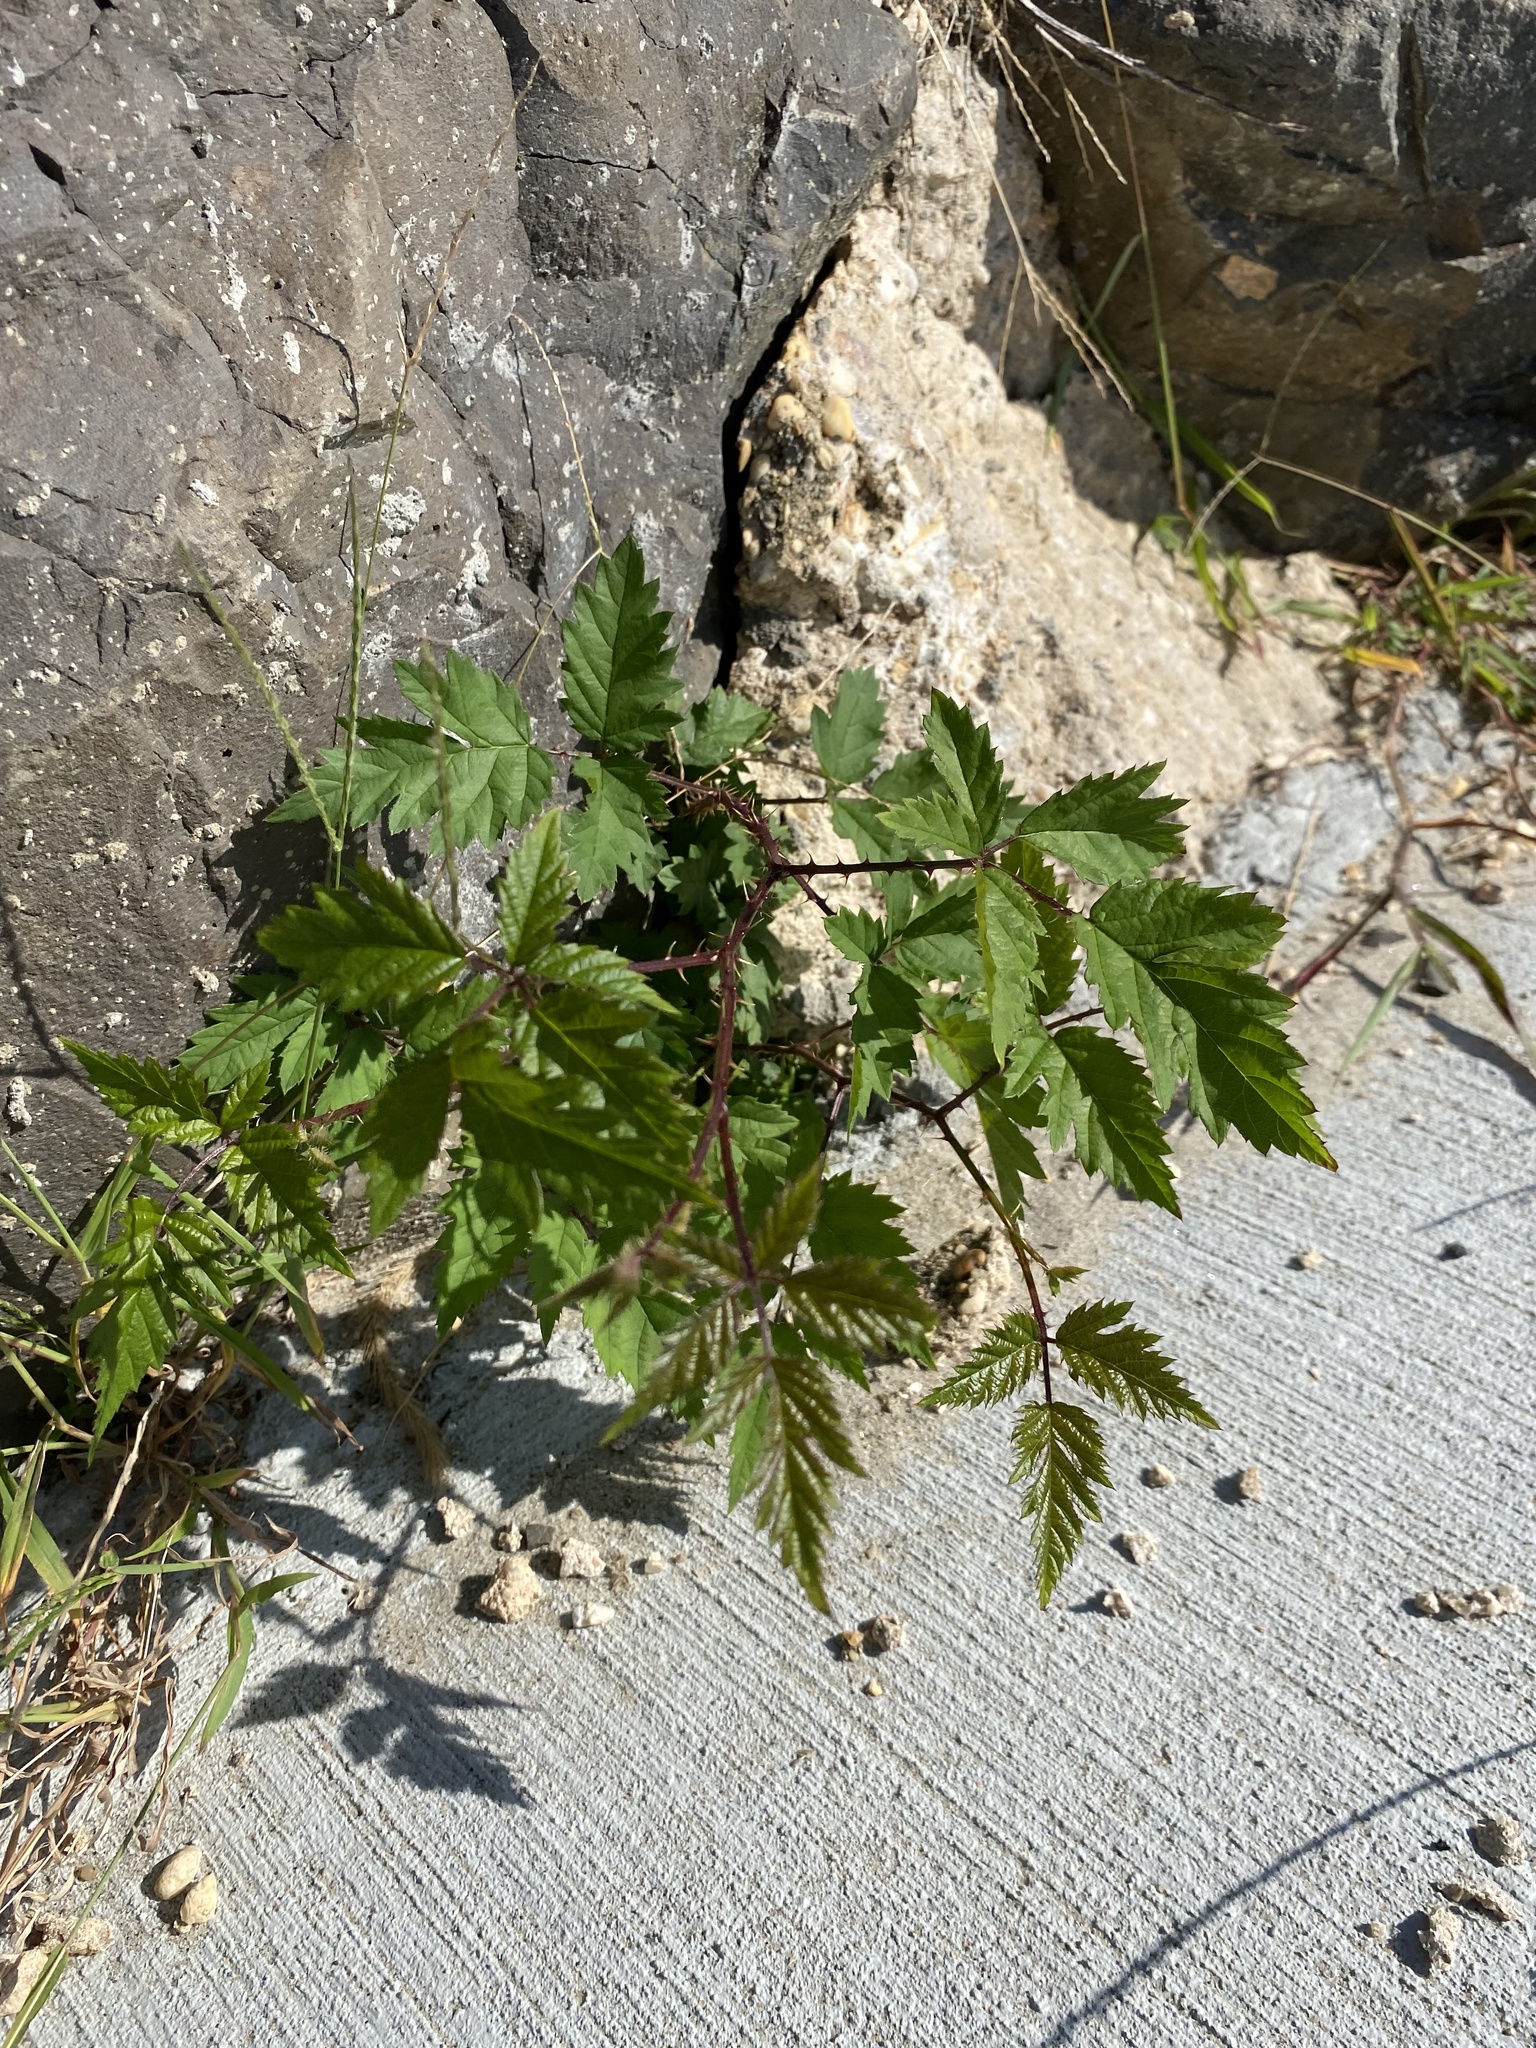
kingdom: Plantae
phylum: Tracheophyta
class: Magnoliopsida
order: Rosales
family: Rosaceae
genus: Rubus
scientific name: Rubus laciniatus
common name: Evergreen blackberry
